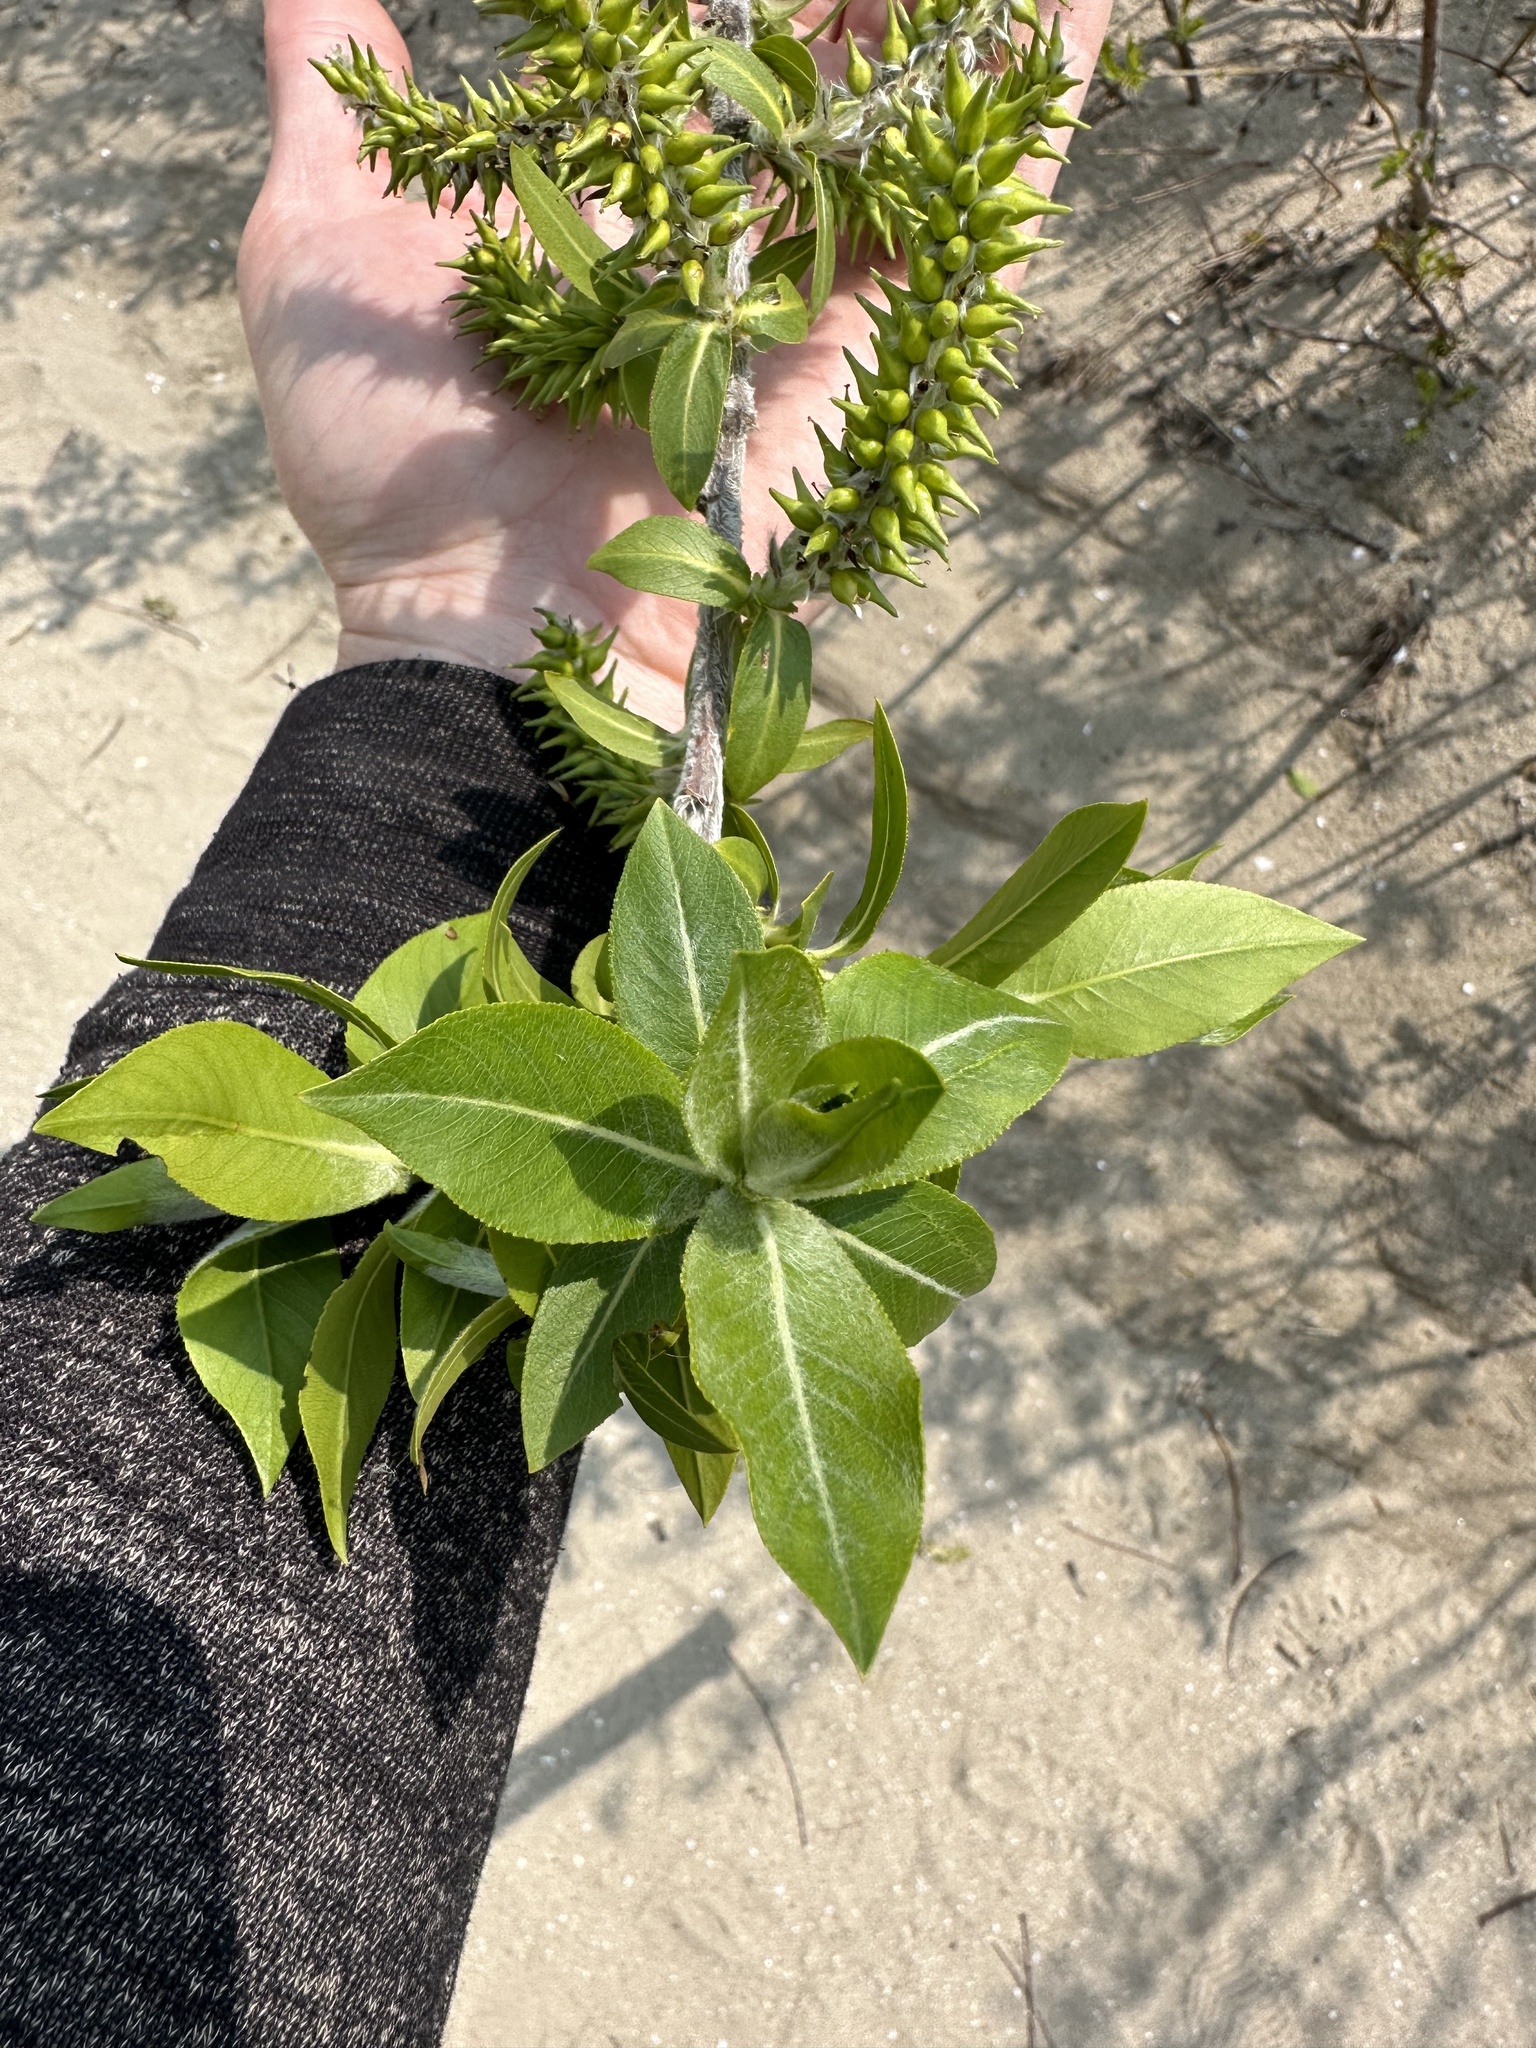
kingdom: Plantae
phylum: Tracheophyta
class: Magnoliopsida
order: Malpighiales
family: Salicaceae
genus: Salix
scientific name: Salix cordata
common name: Heart-leaf willow
